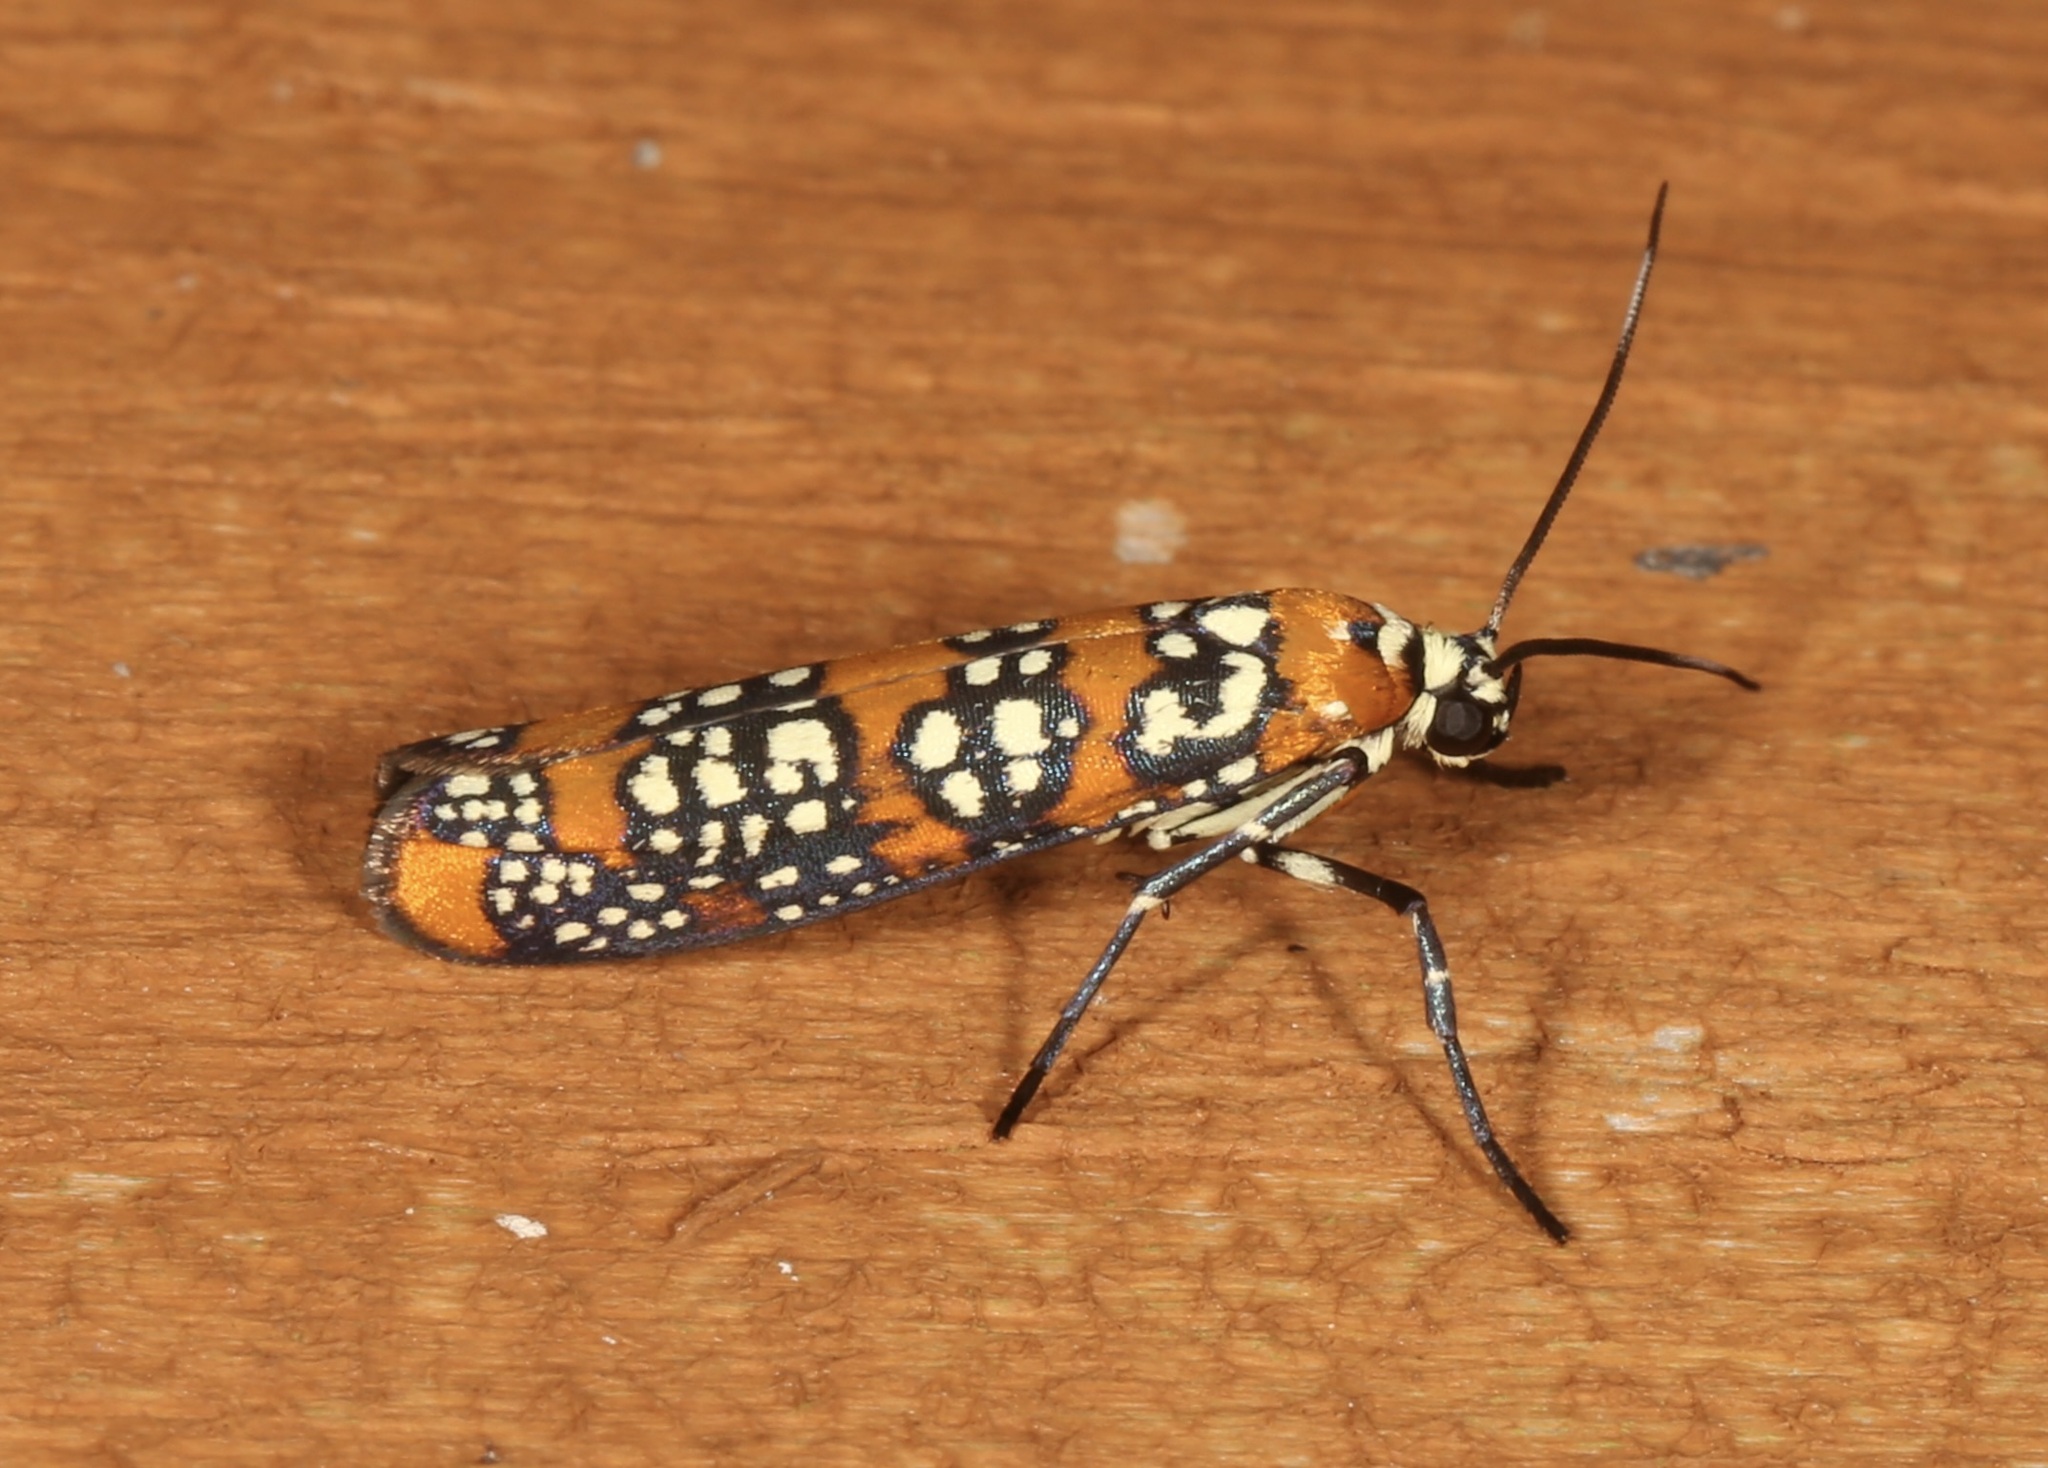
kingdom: Animalia
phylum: Arthropoda
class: Insecta
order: Lepidoptera
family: Attevidae
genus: Atteva
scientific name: Atteva punctella
